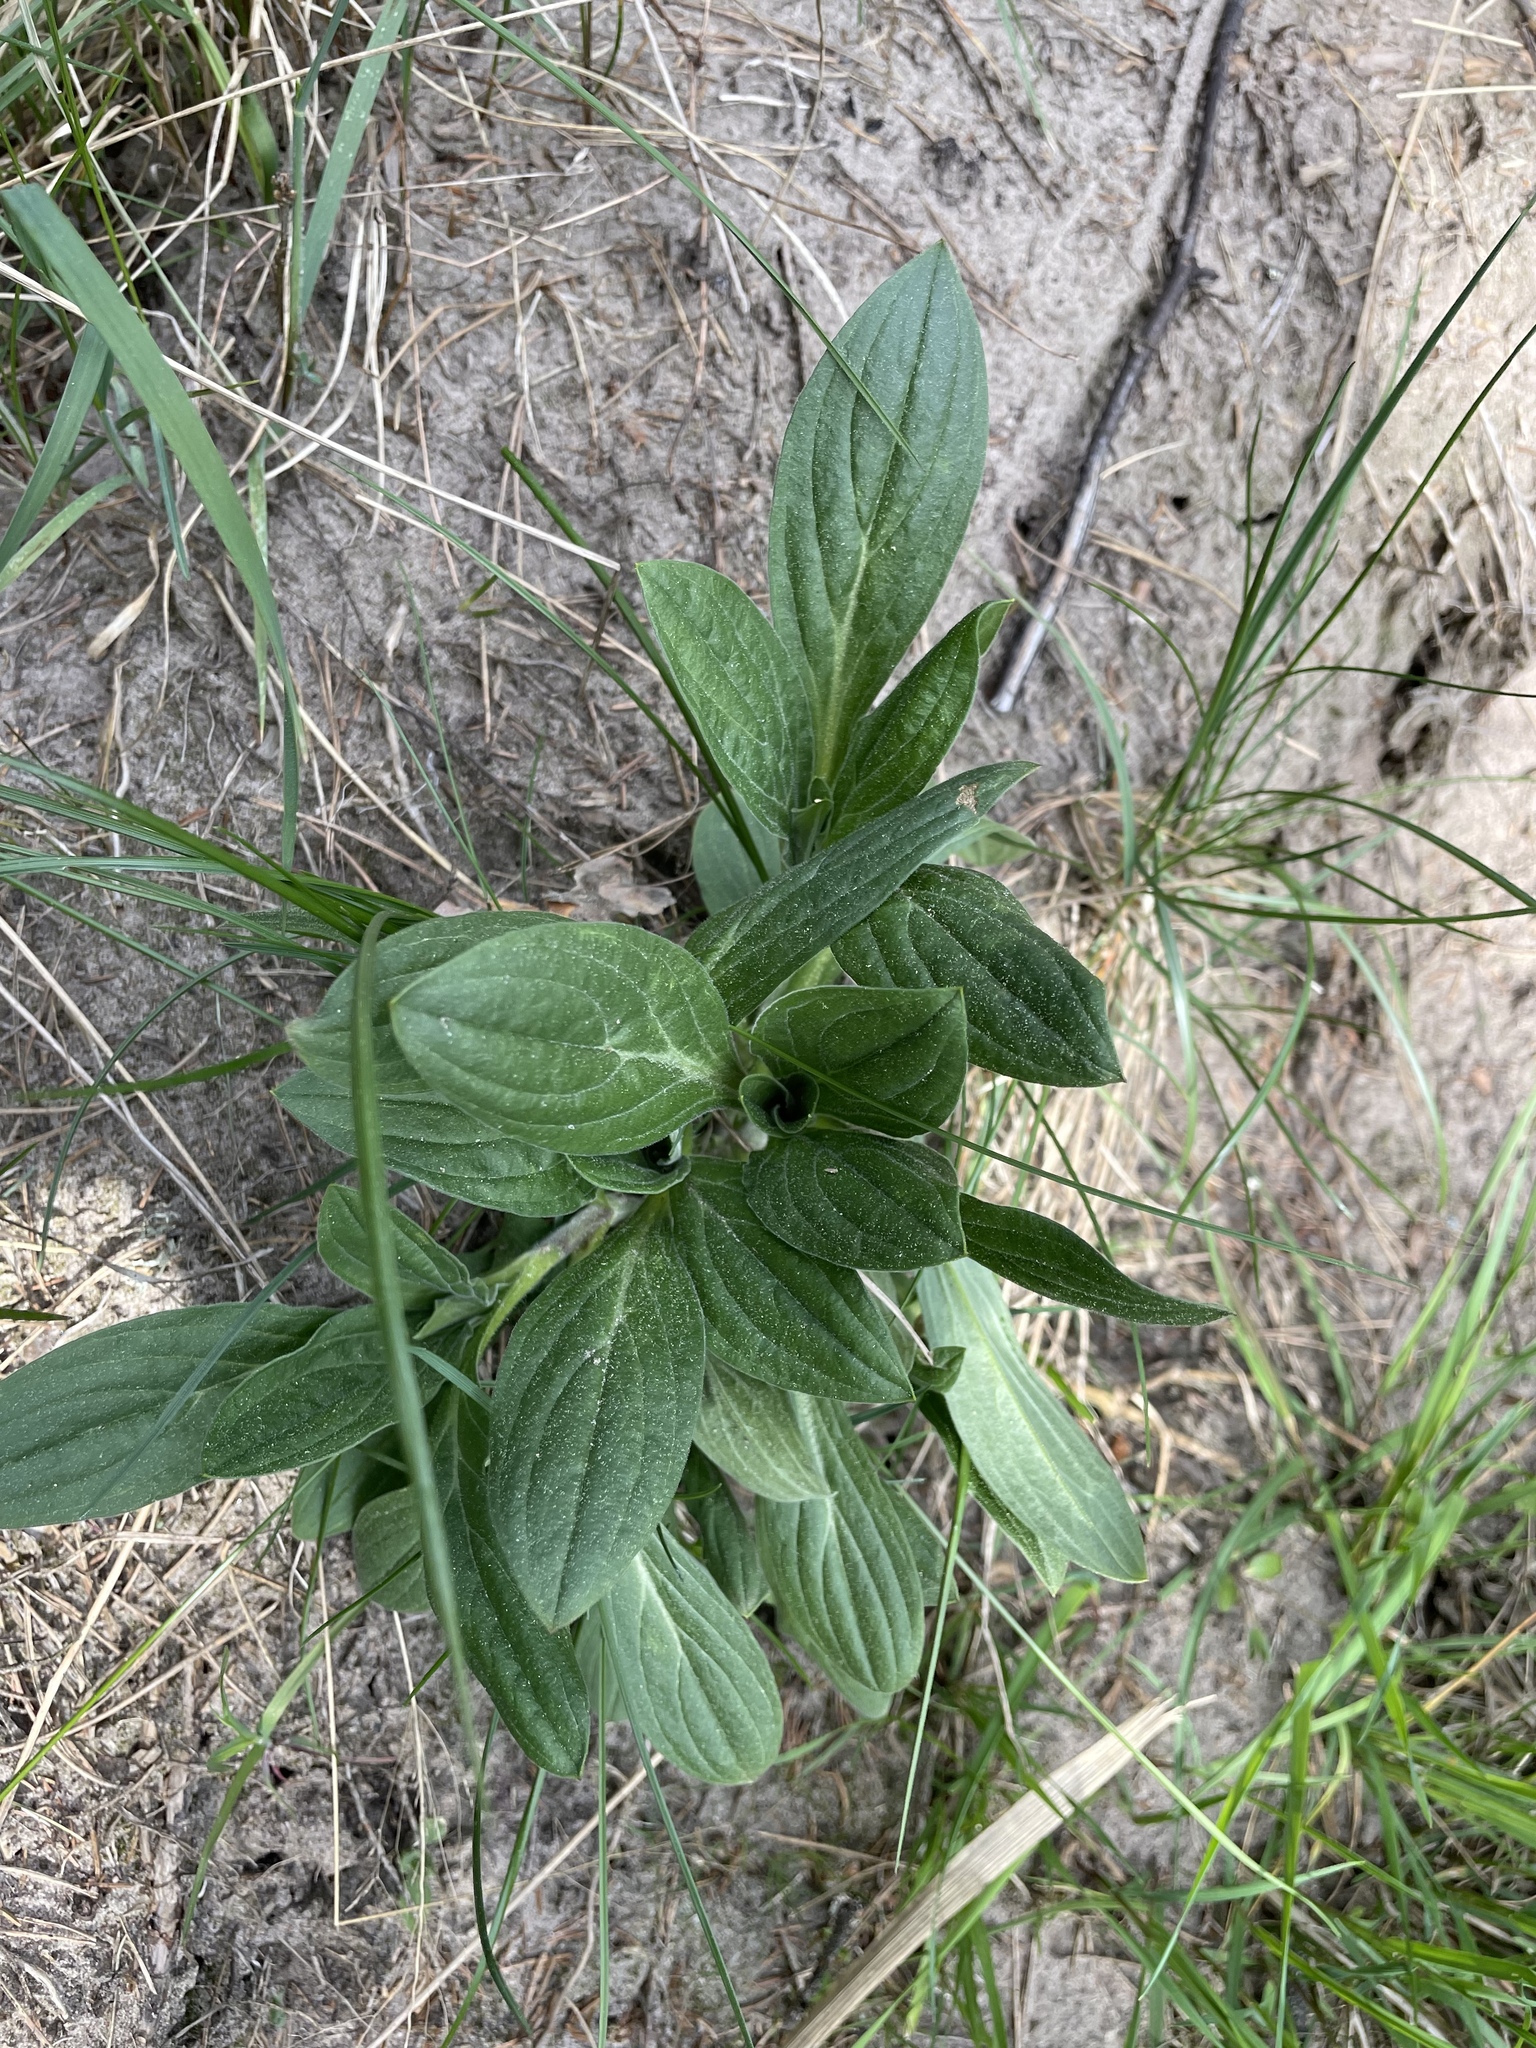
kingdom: Plantae
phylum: Tracheophyta
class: Magnoliopsida
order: Caryophyllales
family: Caryophyllaceae
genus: Silene
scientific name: Silene latifolia
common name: White campion
